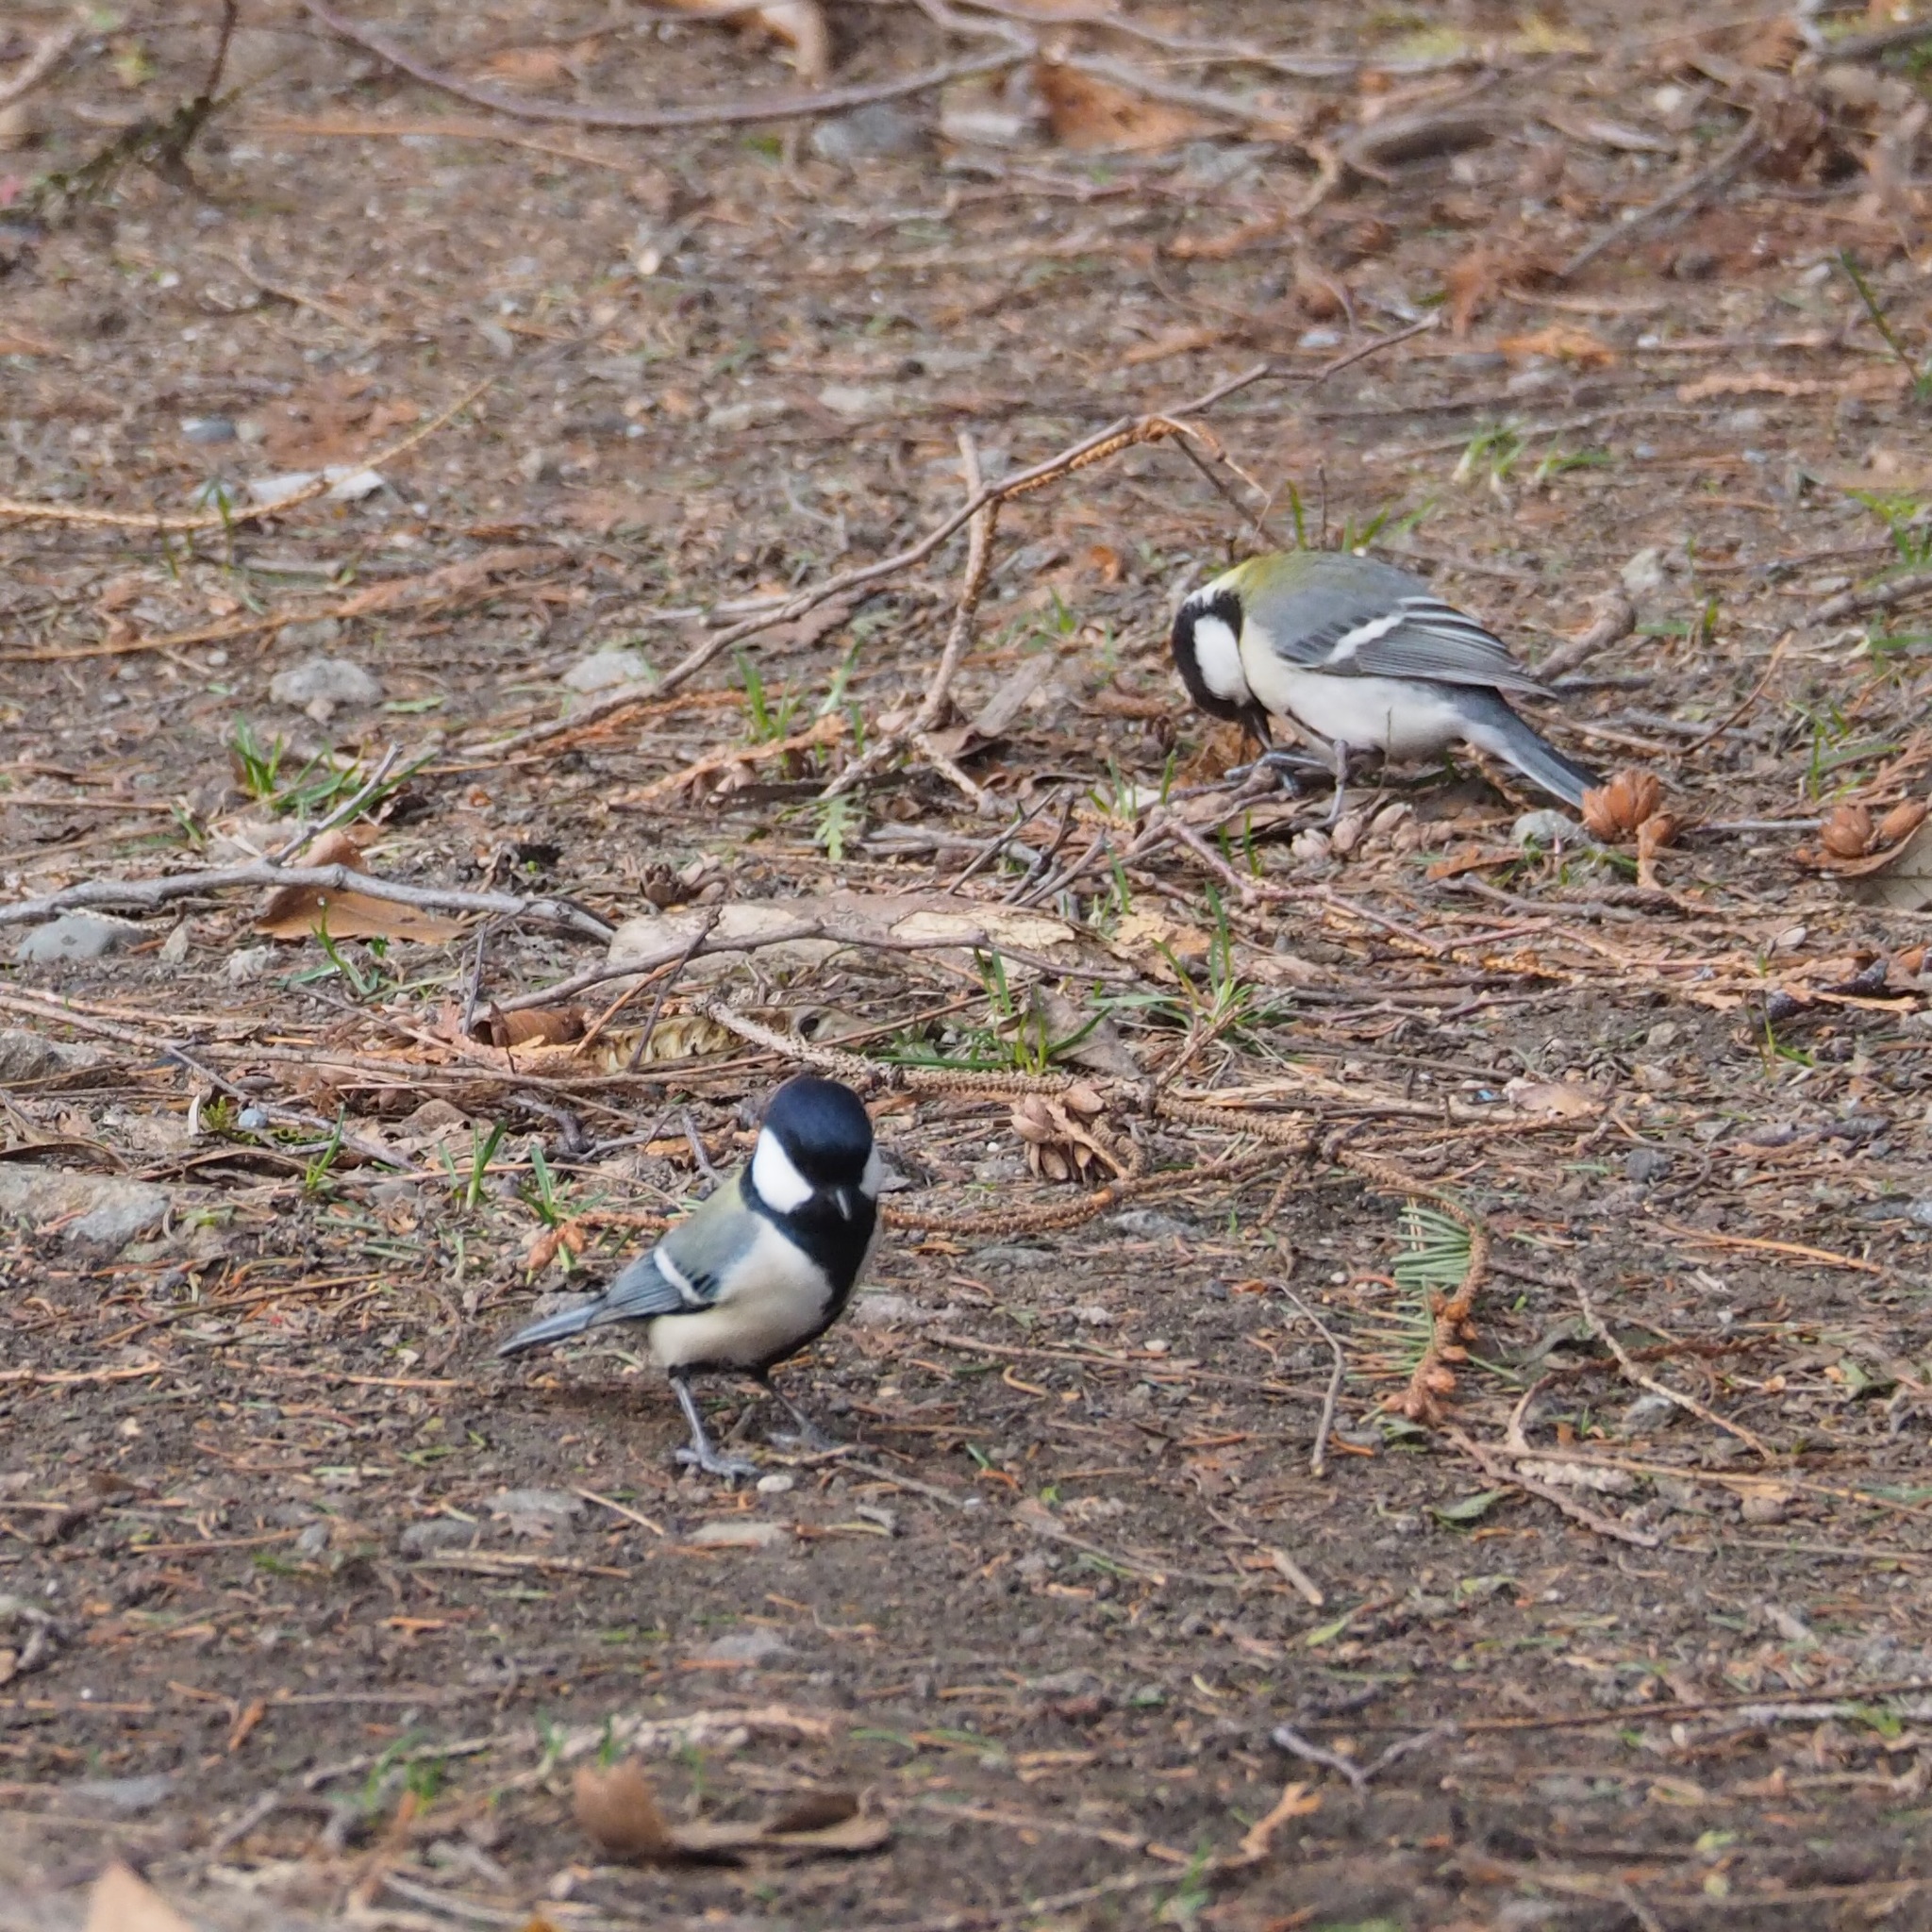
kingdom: Animalia
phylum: Chordata
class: Aves
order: Passeriformes
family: Paridae
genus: Parus
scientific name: Parus minor
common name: Japanese tit
